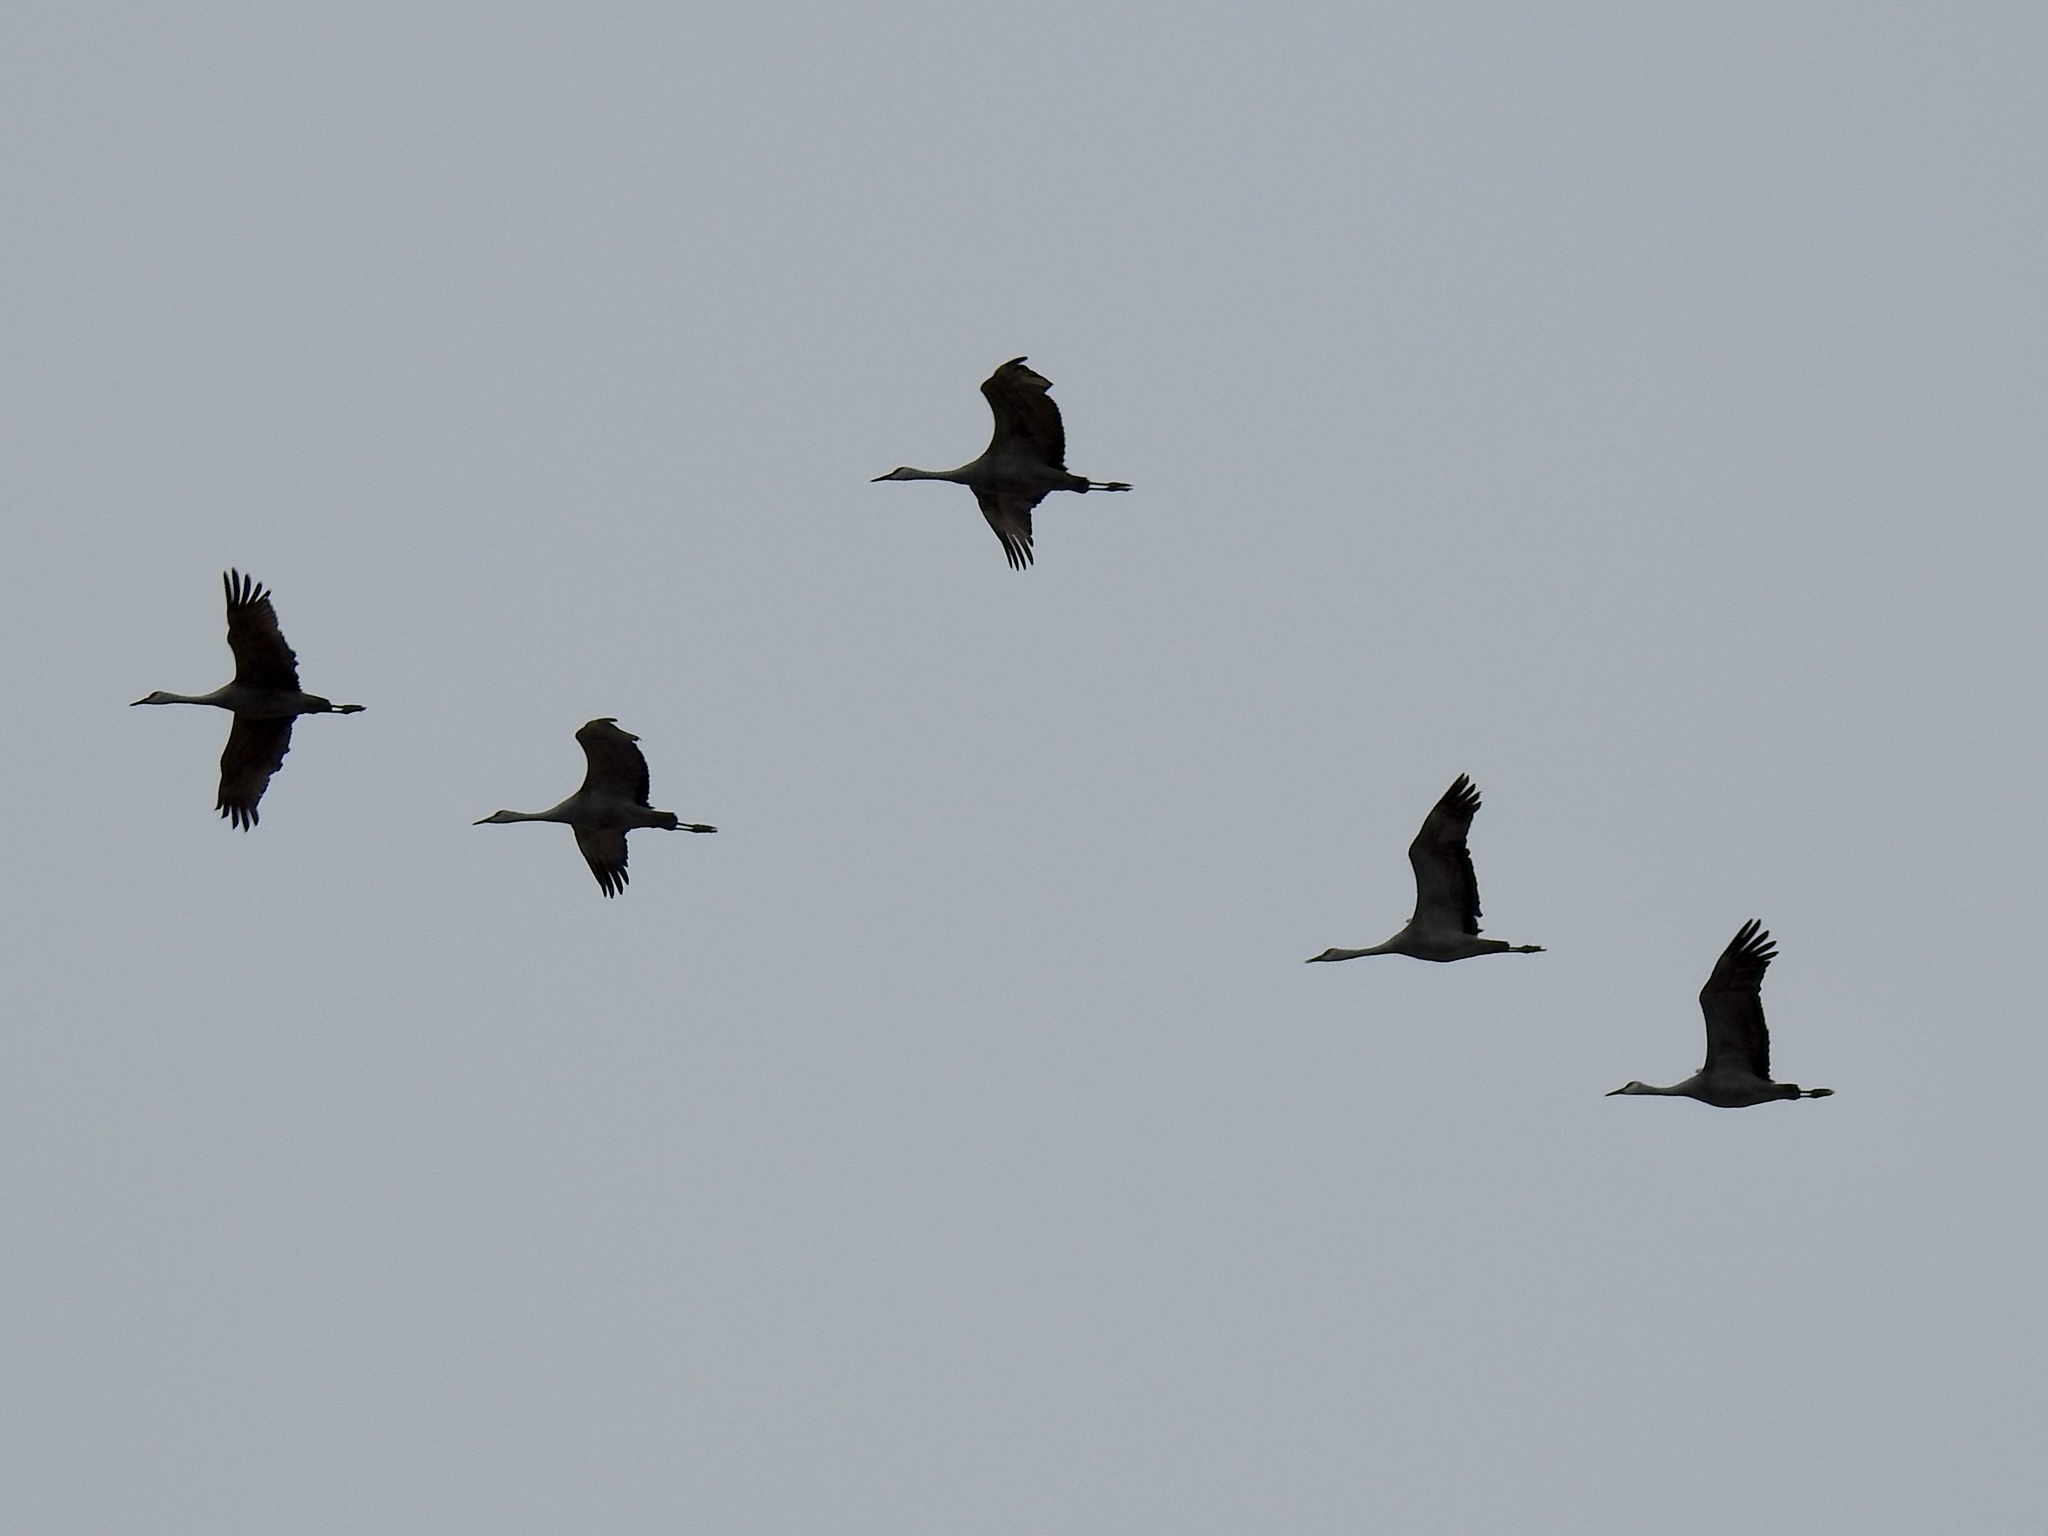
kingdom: Animalia
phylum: Chordata
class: Aves
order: Gruiformes
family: Gruidae
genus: Grus
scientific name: Grus canadensis
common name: Sandhill crane
